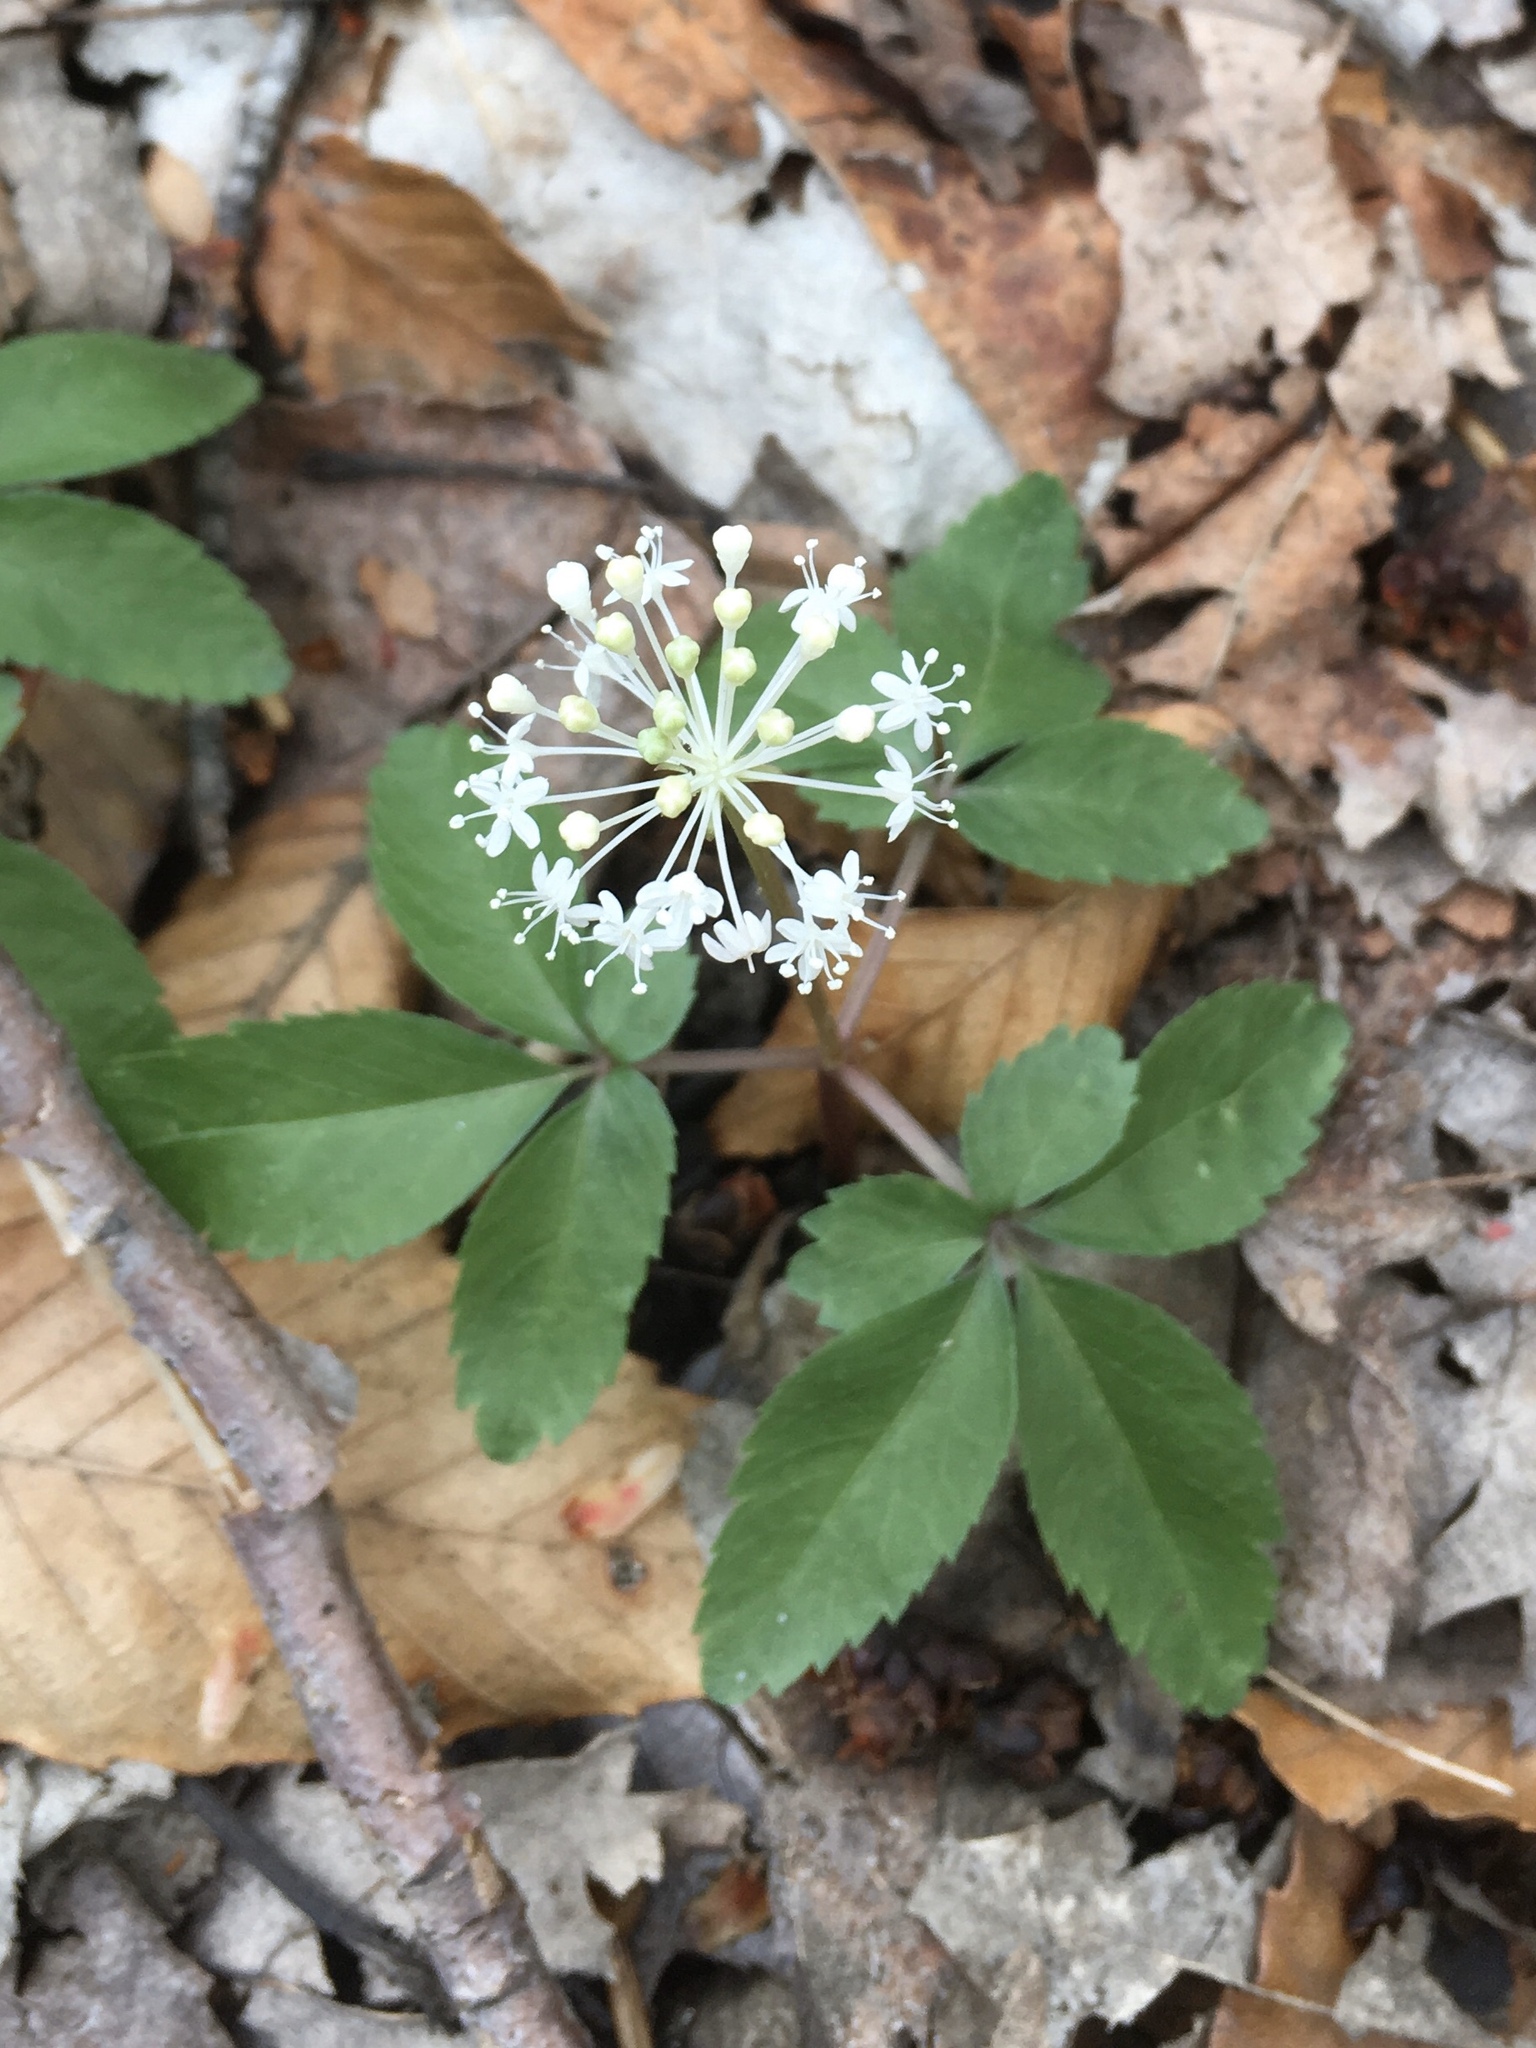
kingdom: Plantae
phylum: Tracheophyta
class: Magnoliopsida
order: Apiales
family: Araliaceae
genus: Panax
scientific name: Panax trifolius
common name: Dwarf ginseng
